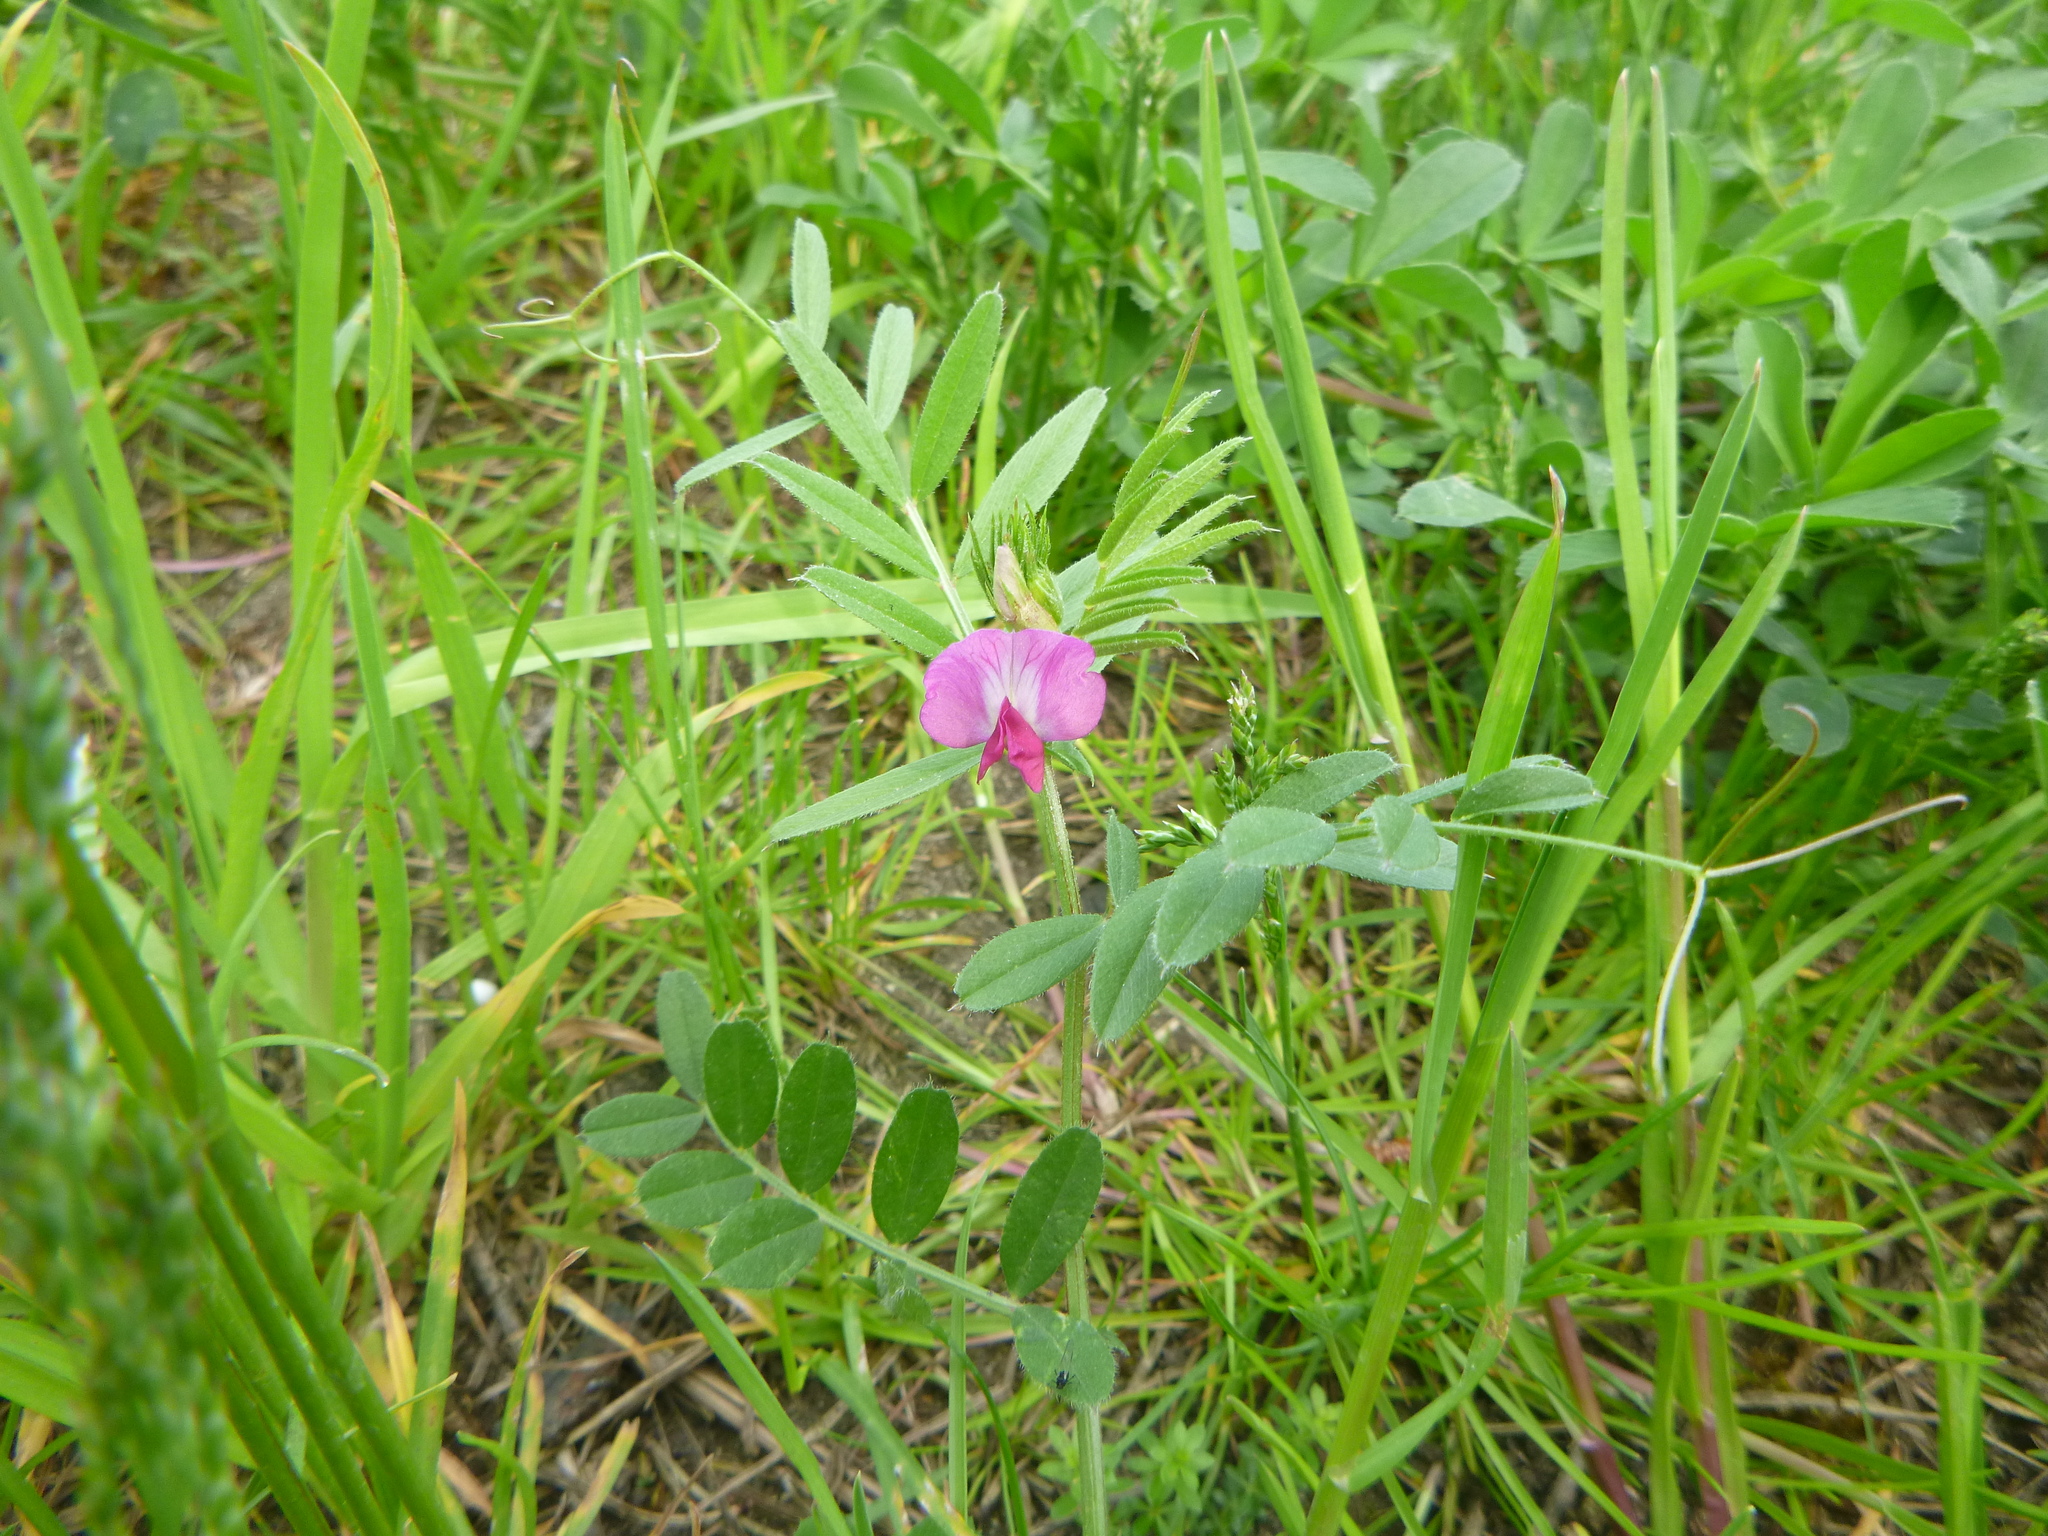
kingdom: Plantae
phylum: Tracheophyta
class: Magnoliopsida
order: Fabales
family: Fabaceae
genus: Vicia
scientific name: Vicia sativa
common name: Garden vetch
